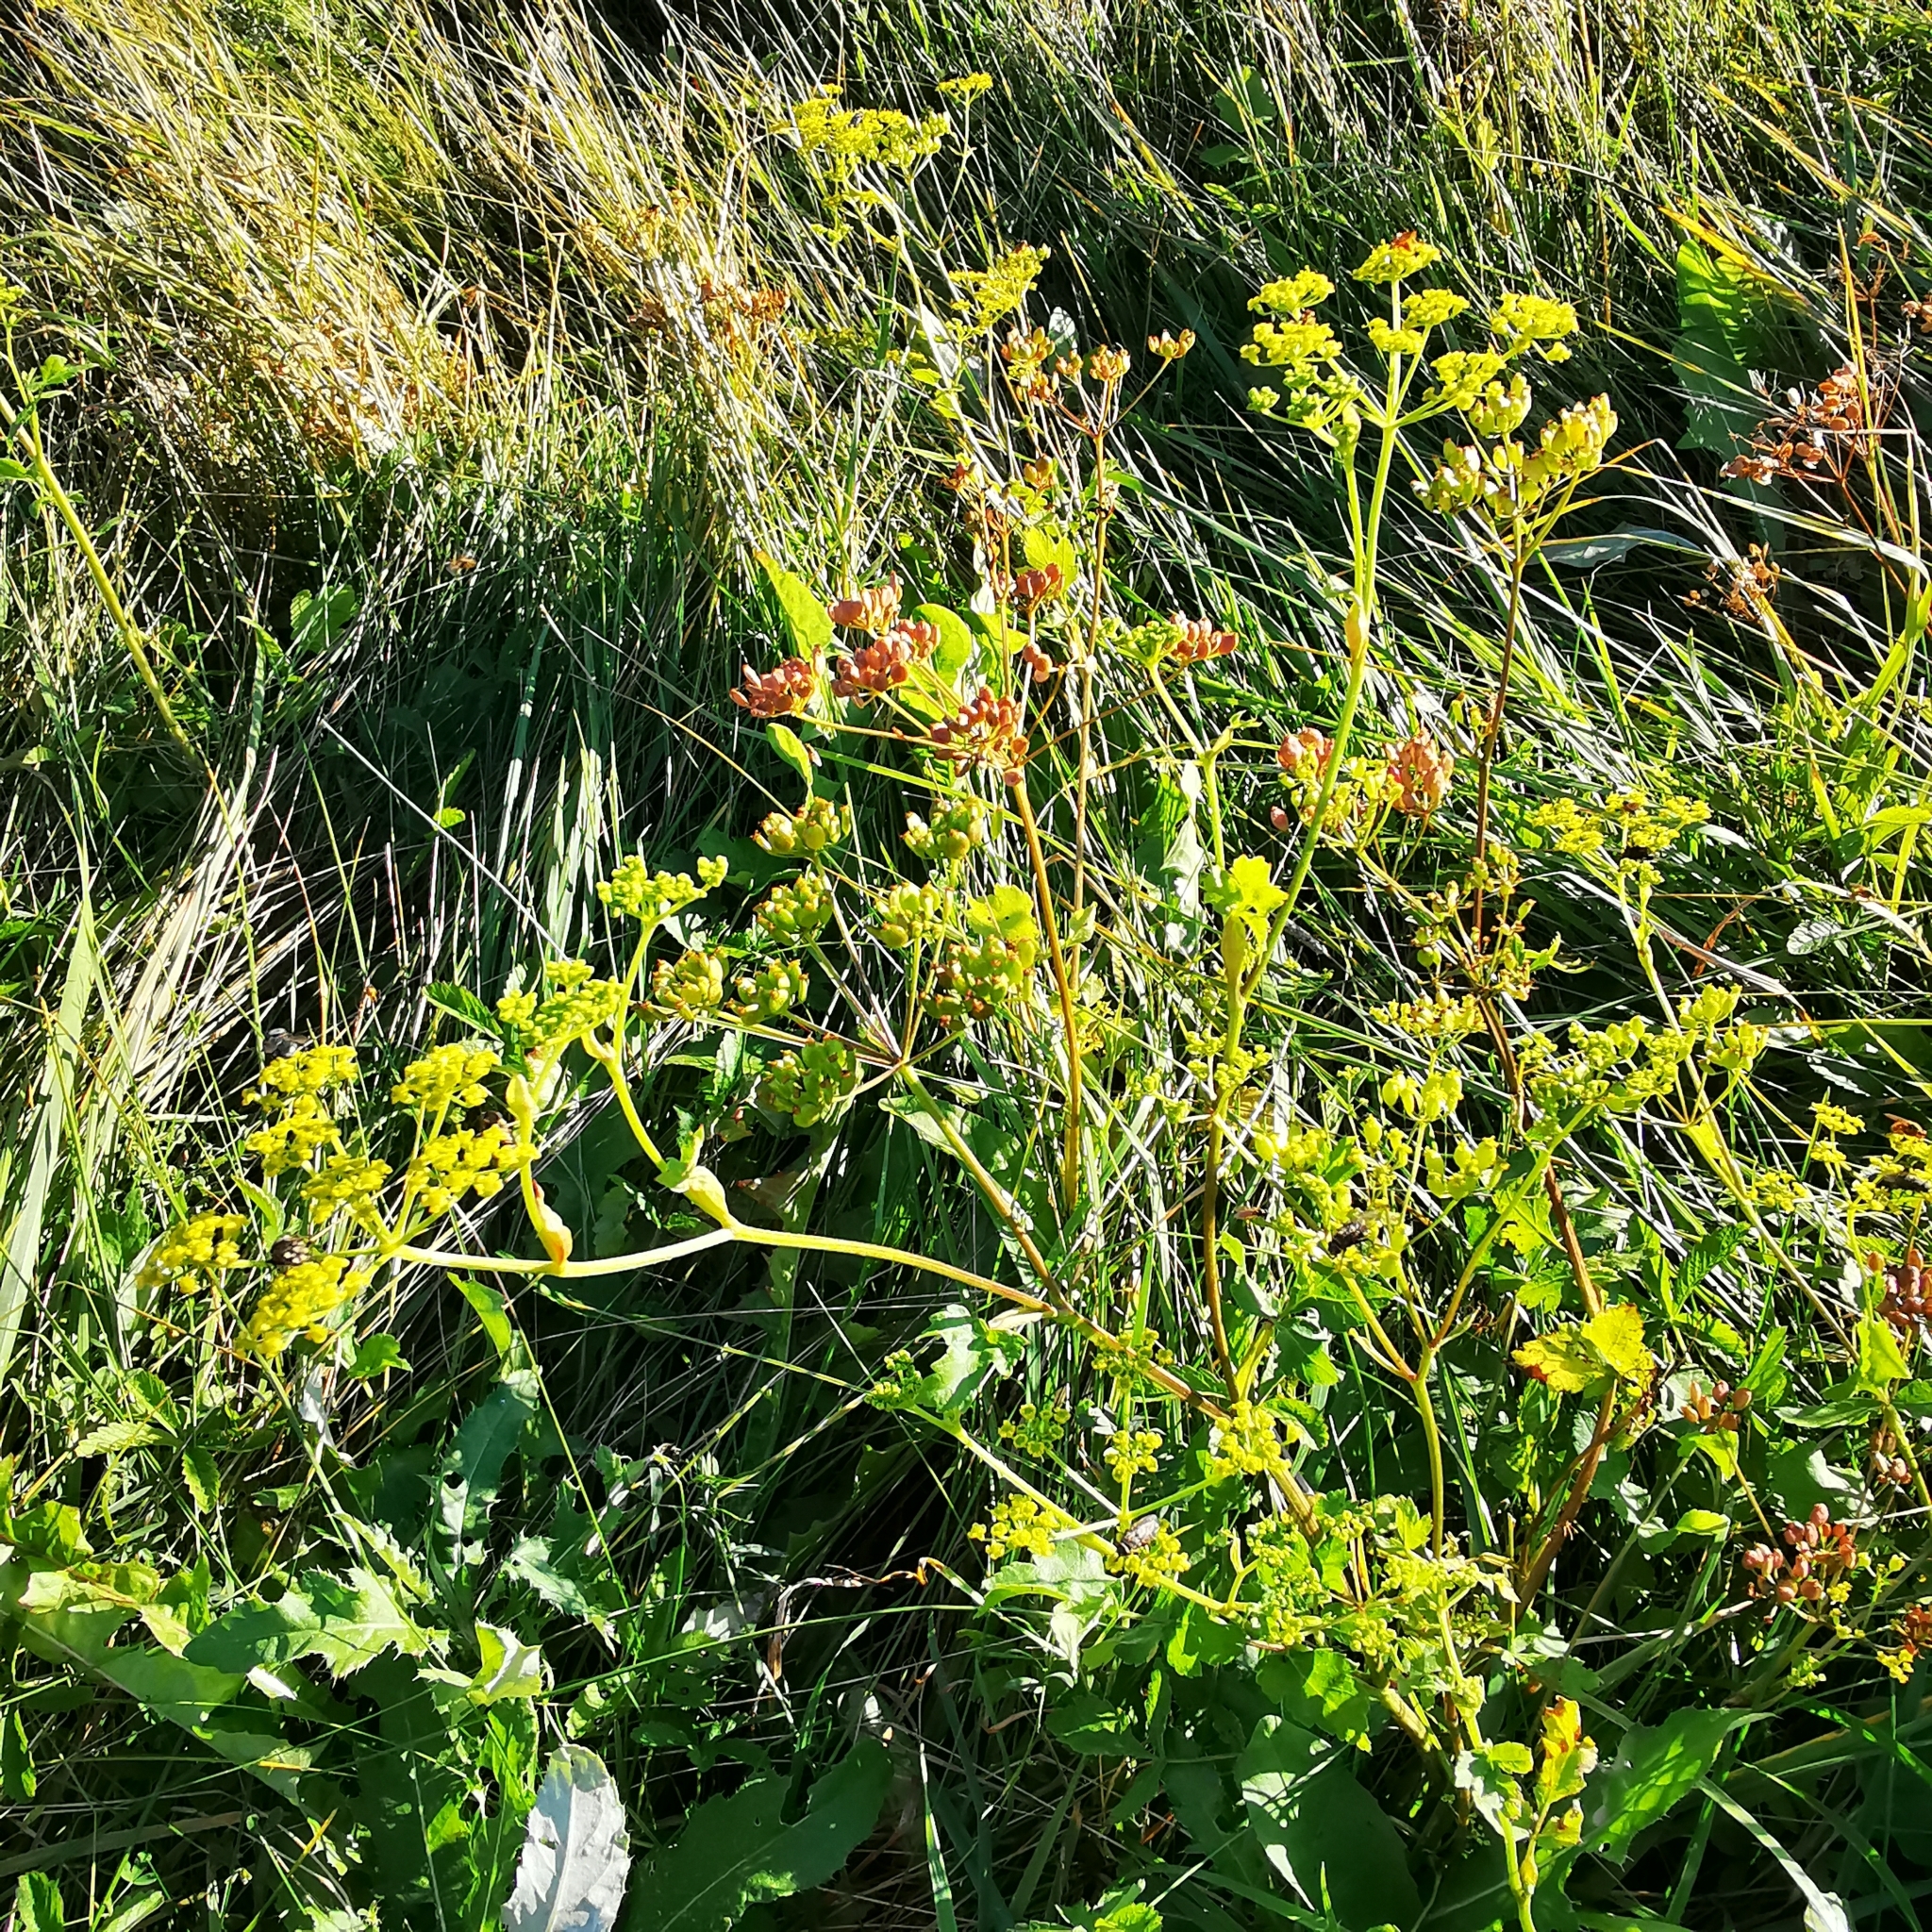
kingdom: Plantae
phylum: Tracheophyta
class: Magnoliopsida
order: Apiales
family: Apiaceae
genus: Pastinaca
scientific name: Pastinaca sativa
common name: Wild parsnip
